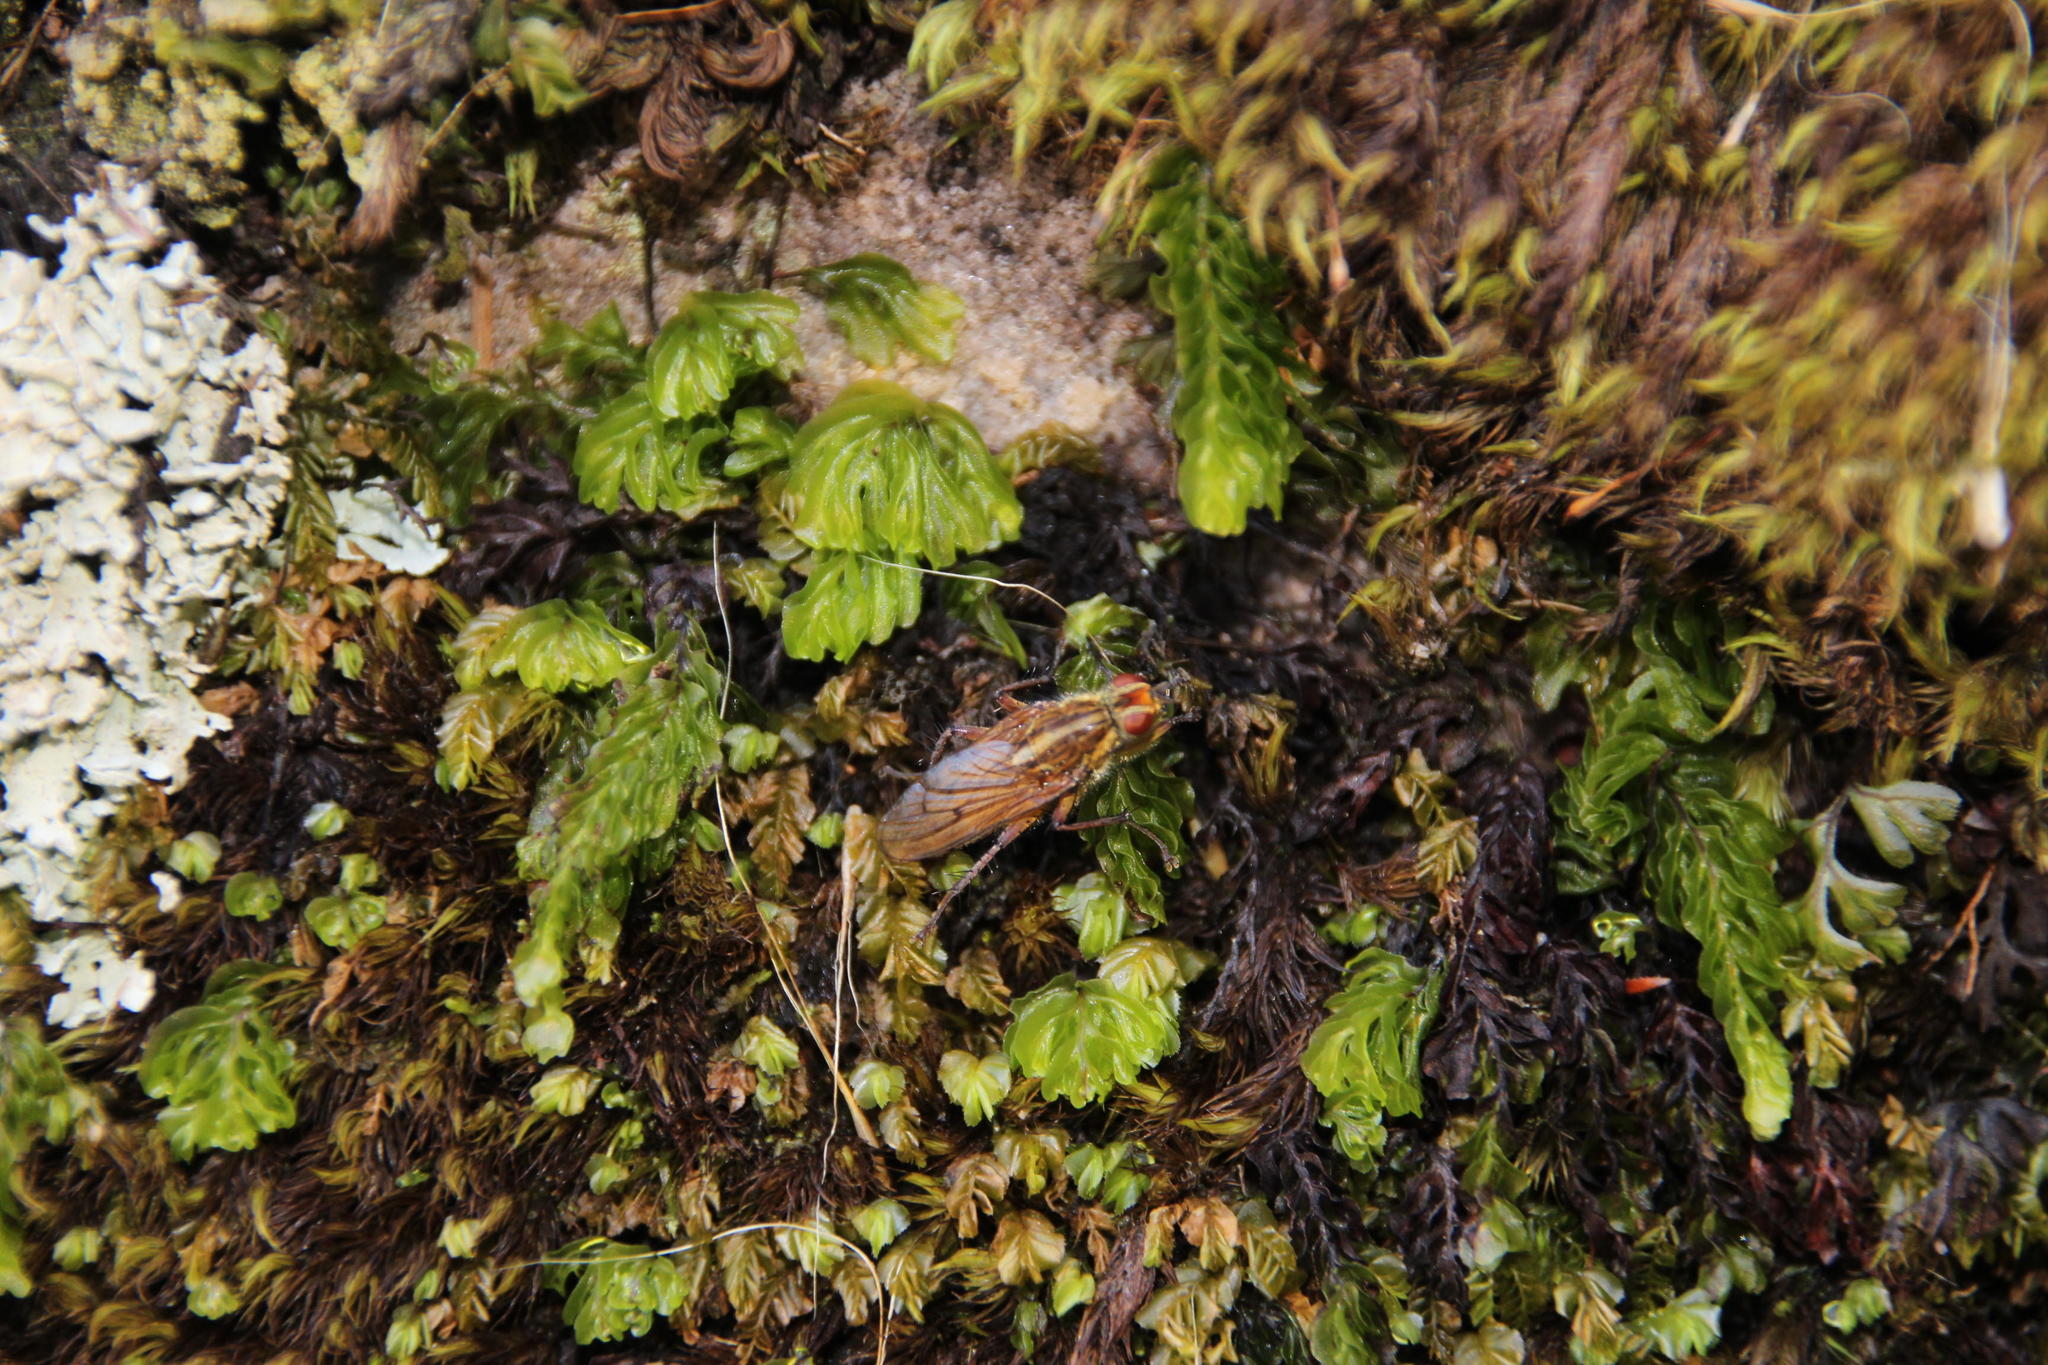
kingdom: Plantae
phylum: Tracheophyta
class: Polypodiopsida
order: Hymenophyllales
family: Hymenophyllaceae
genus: Hymenophyllum
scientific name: Hymenophyllum tunbrigense
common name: Tunbridge filmy fern
